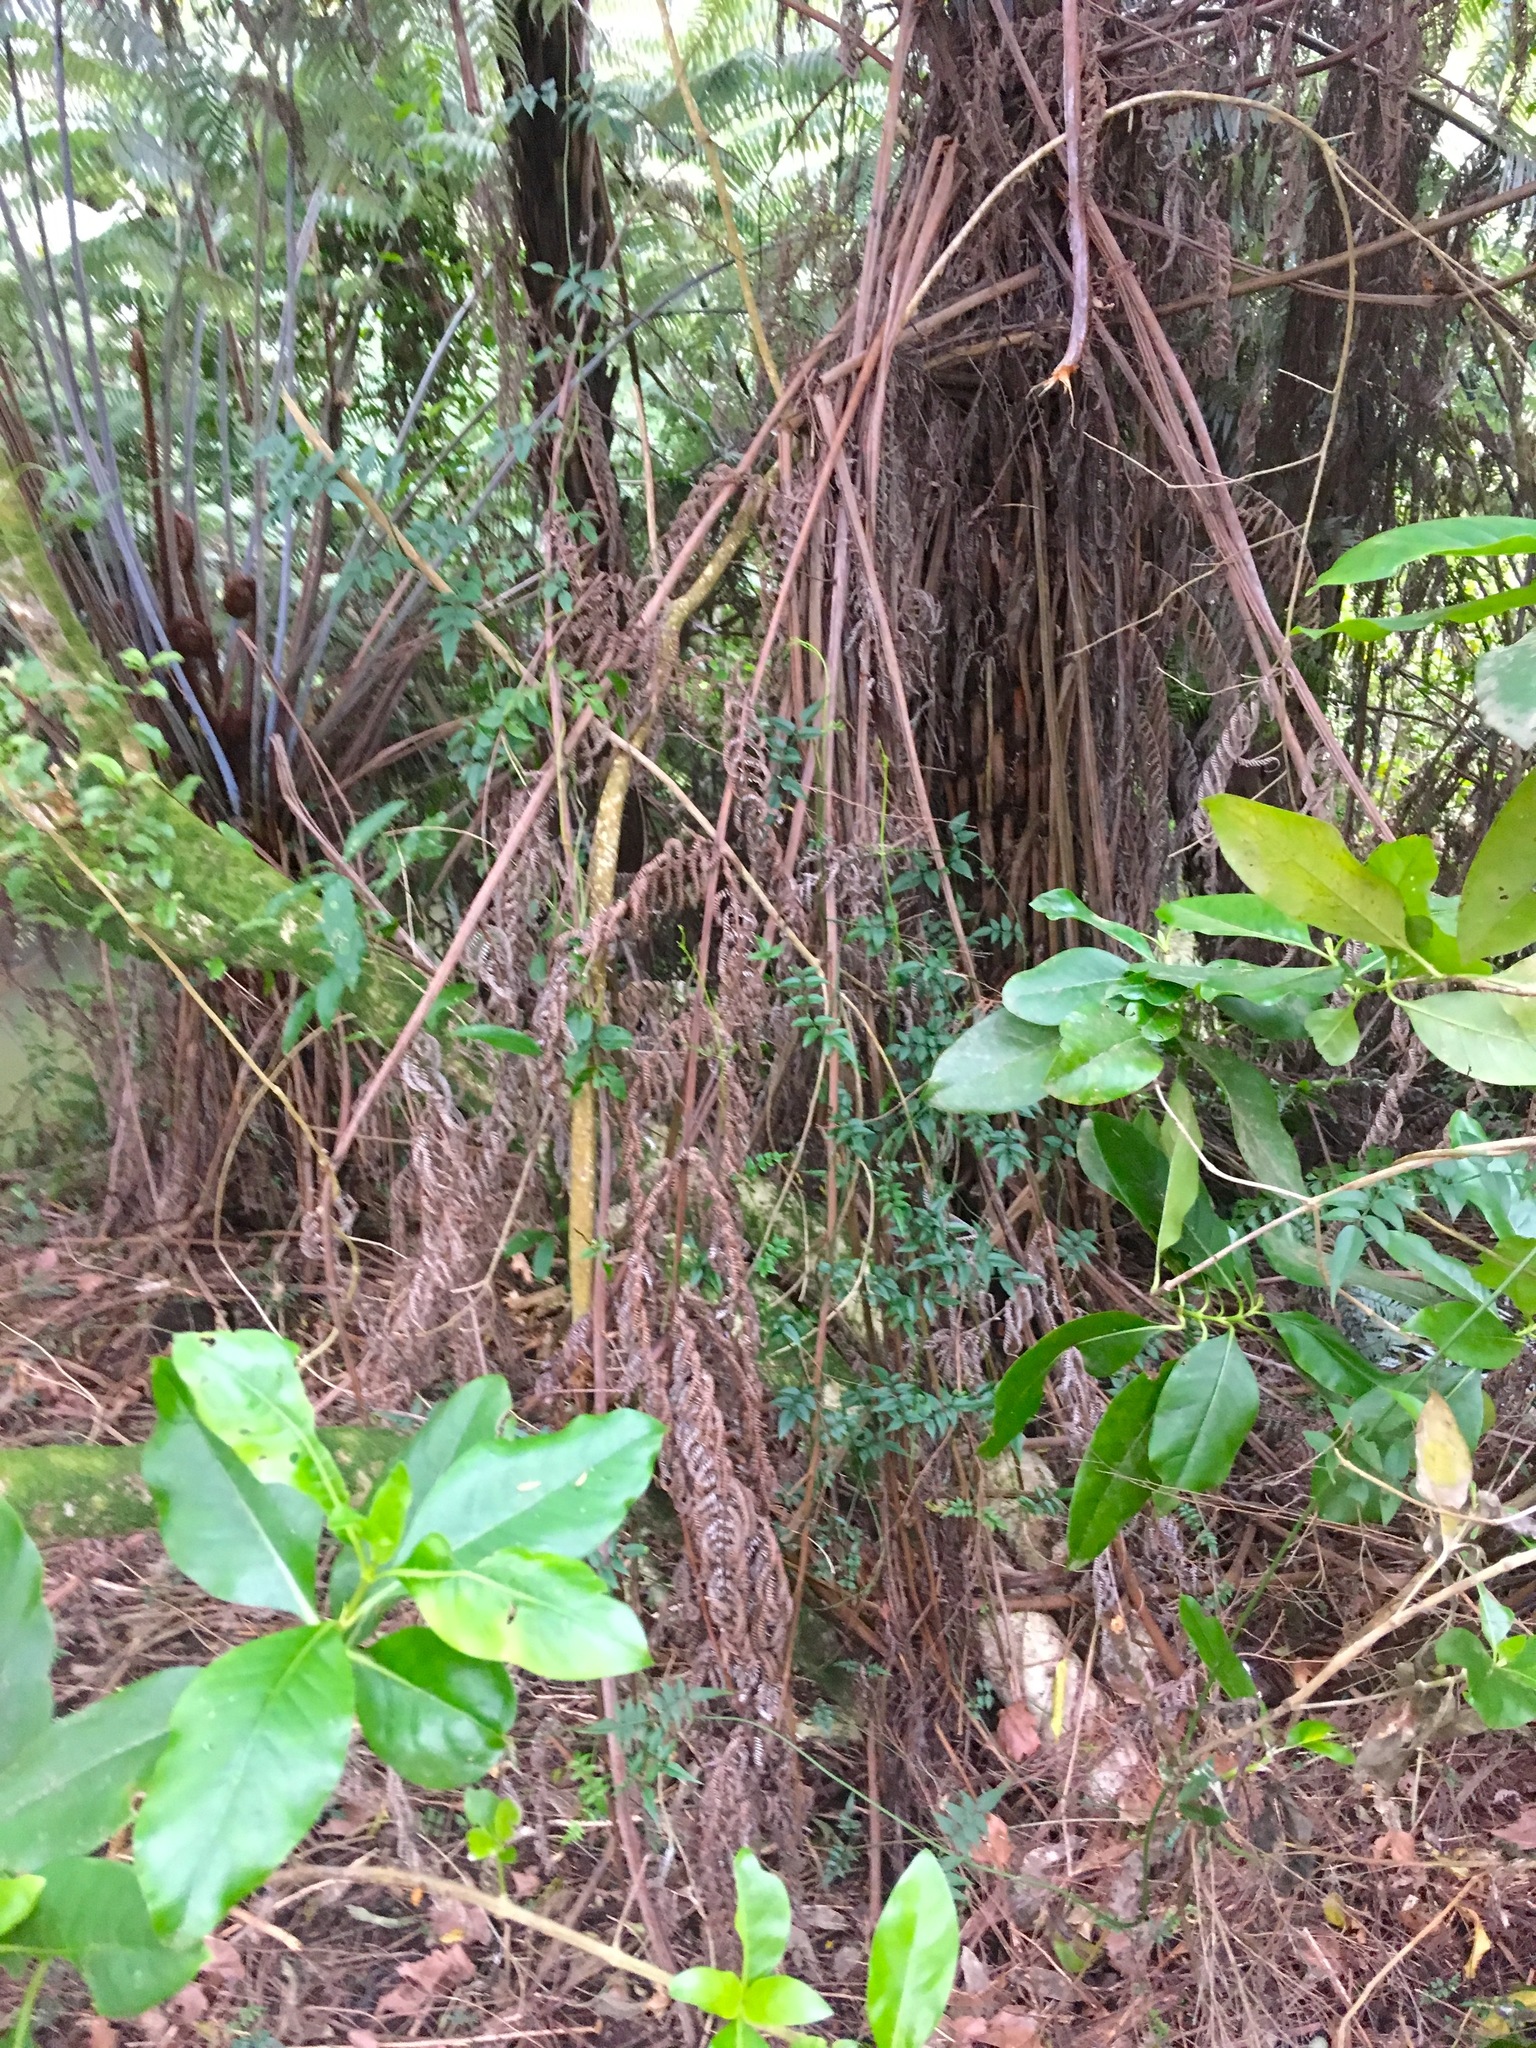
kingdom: Plantae
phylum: Tracheophyta
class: Magnoliopsida
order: Lamiales
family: Oleaceae
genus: Jasminum
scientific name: Jasminum polyanthum
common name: Pink jasmine
